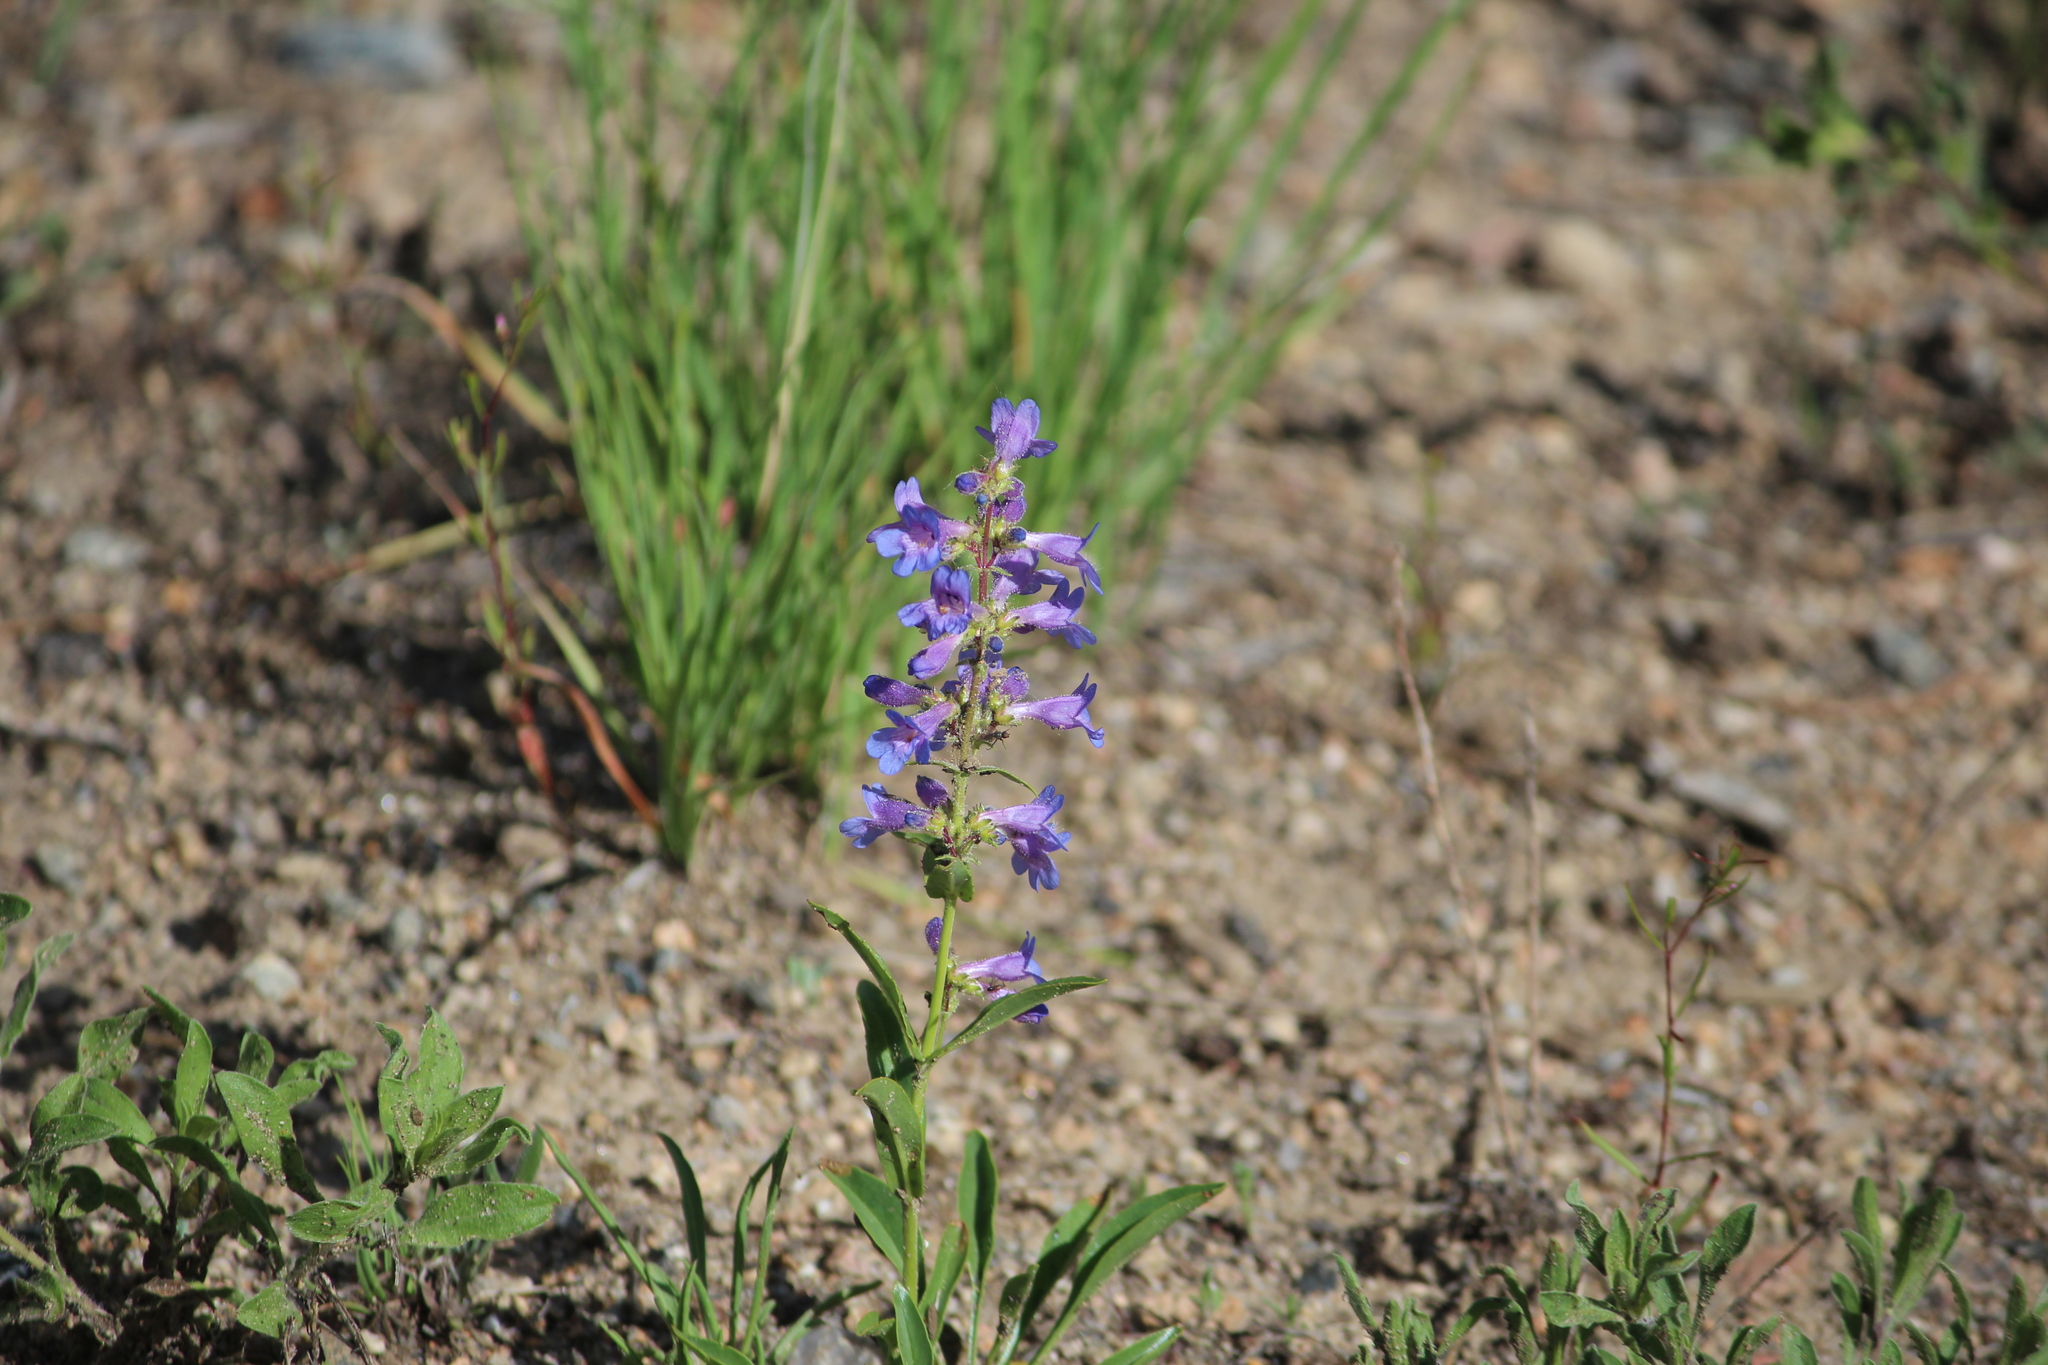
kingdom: Plantae
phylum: Tracheophyta
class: Magnoliopsida
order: Lamiales
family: Plantaginaceae
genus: Penstemon
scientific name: Penstemon virens
